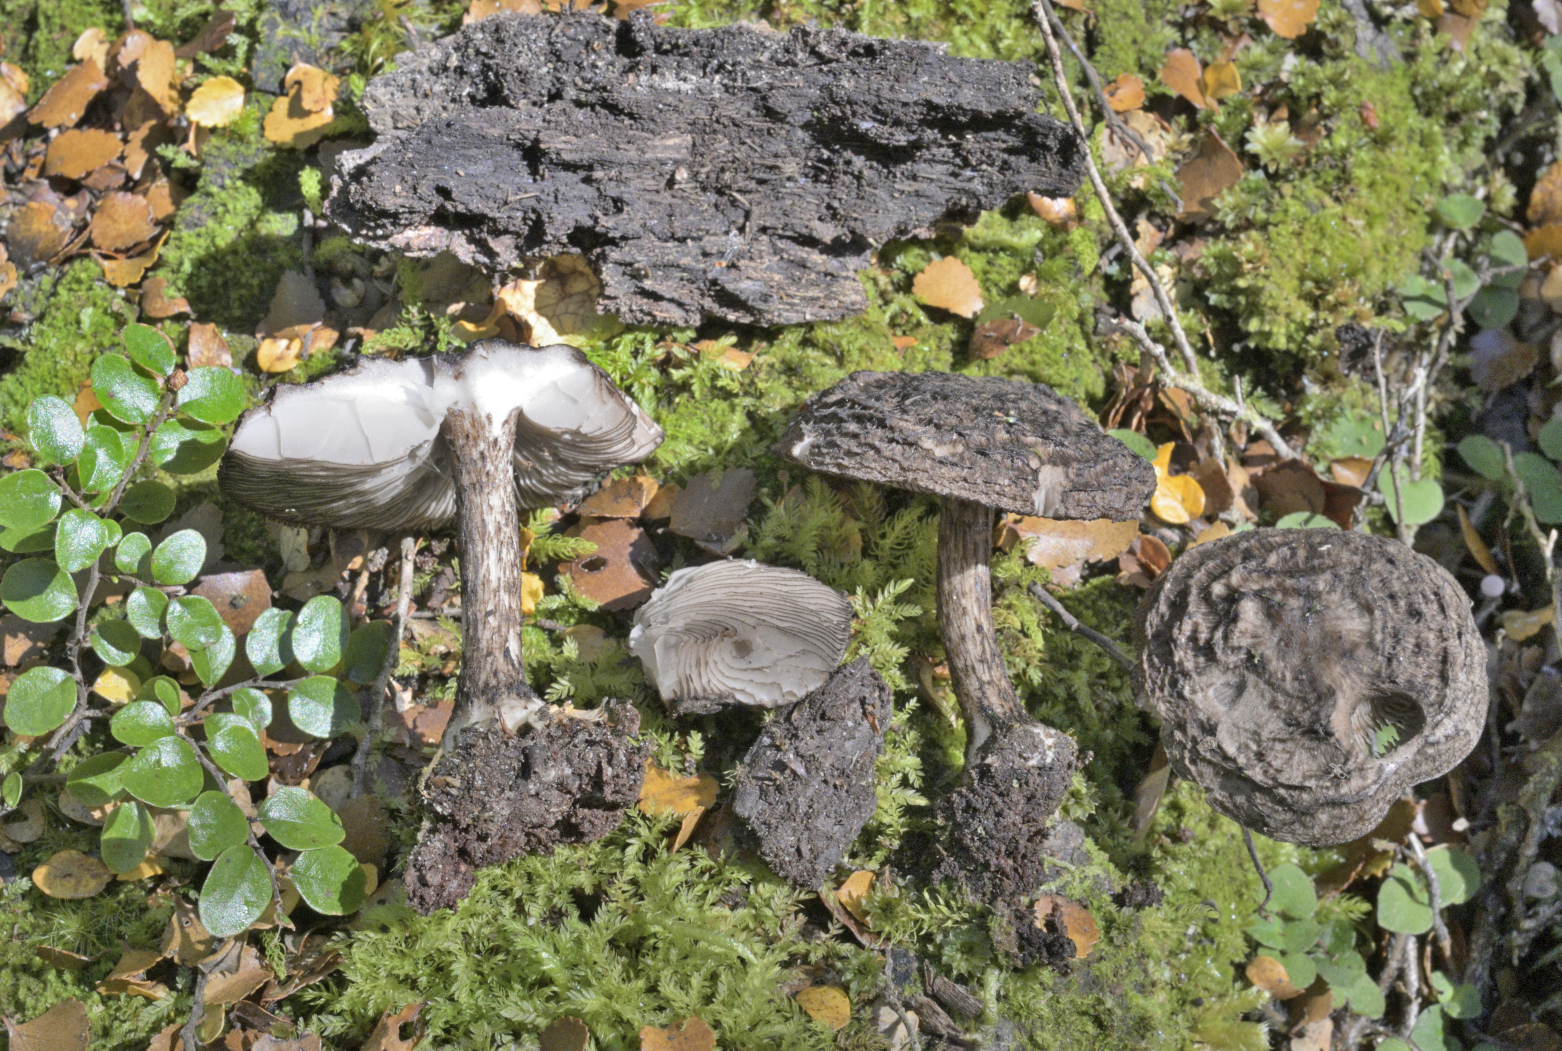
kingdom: Fungi
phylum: Basidiomycota
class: Agaricomycetes
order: Agaricales
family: Pluteaceae
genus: Pluteus
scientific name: Pluteus concentricus
